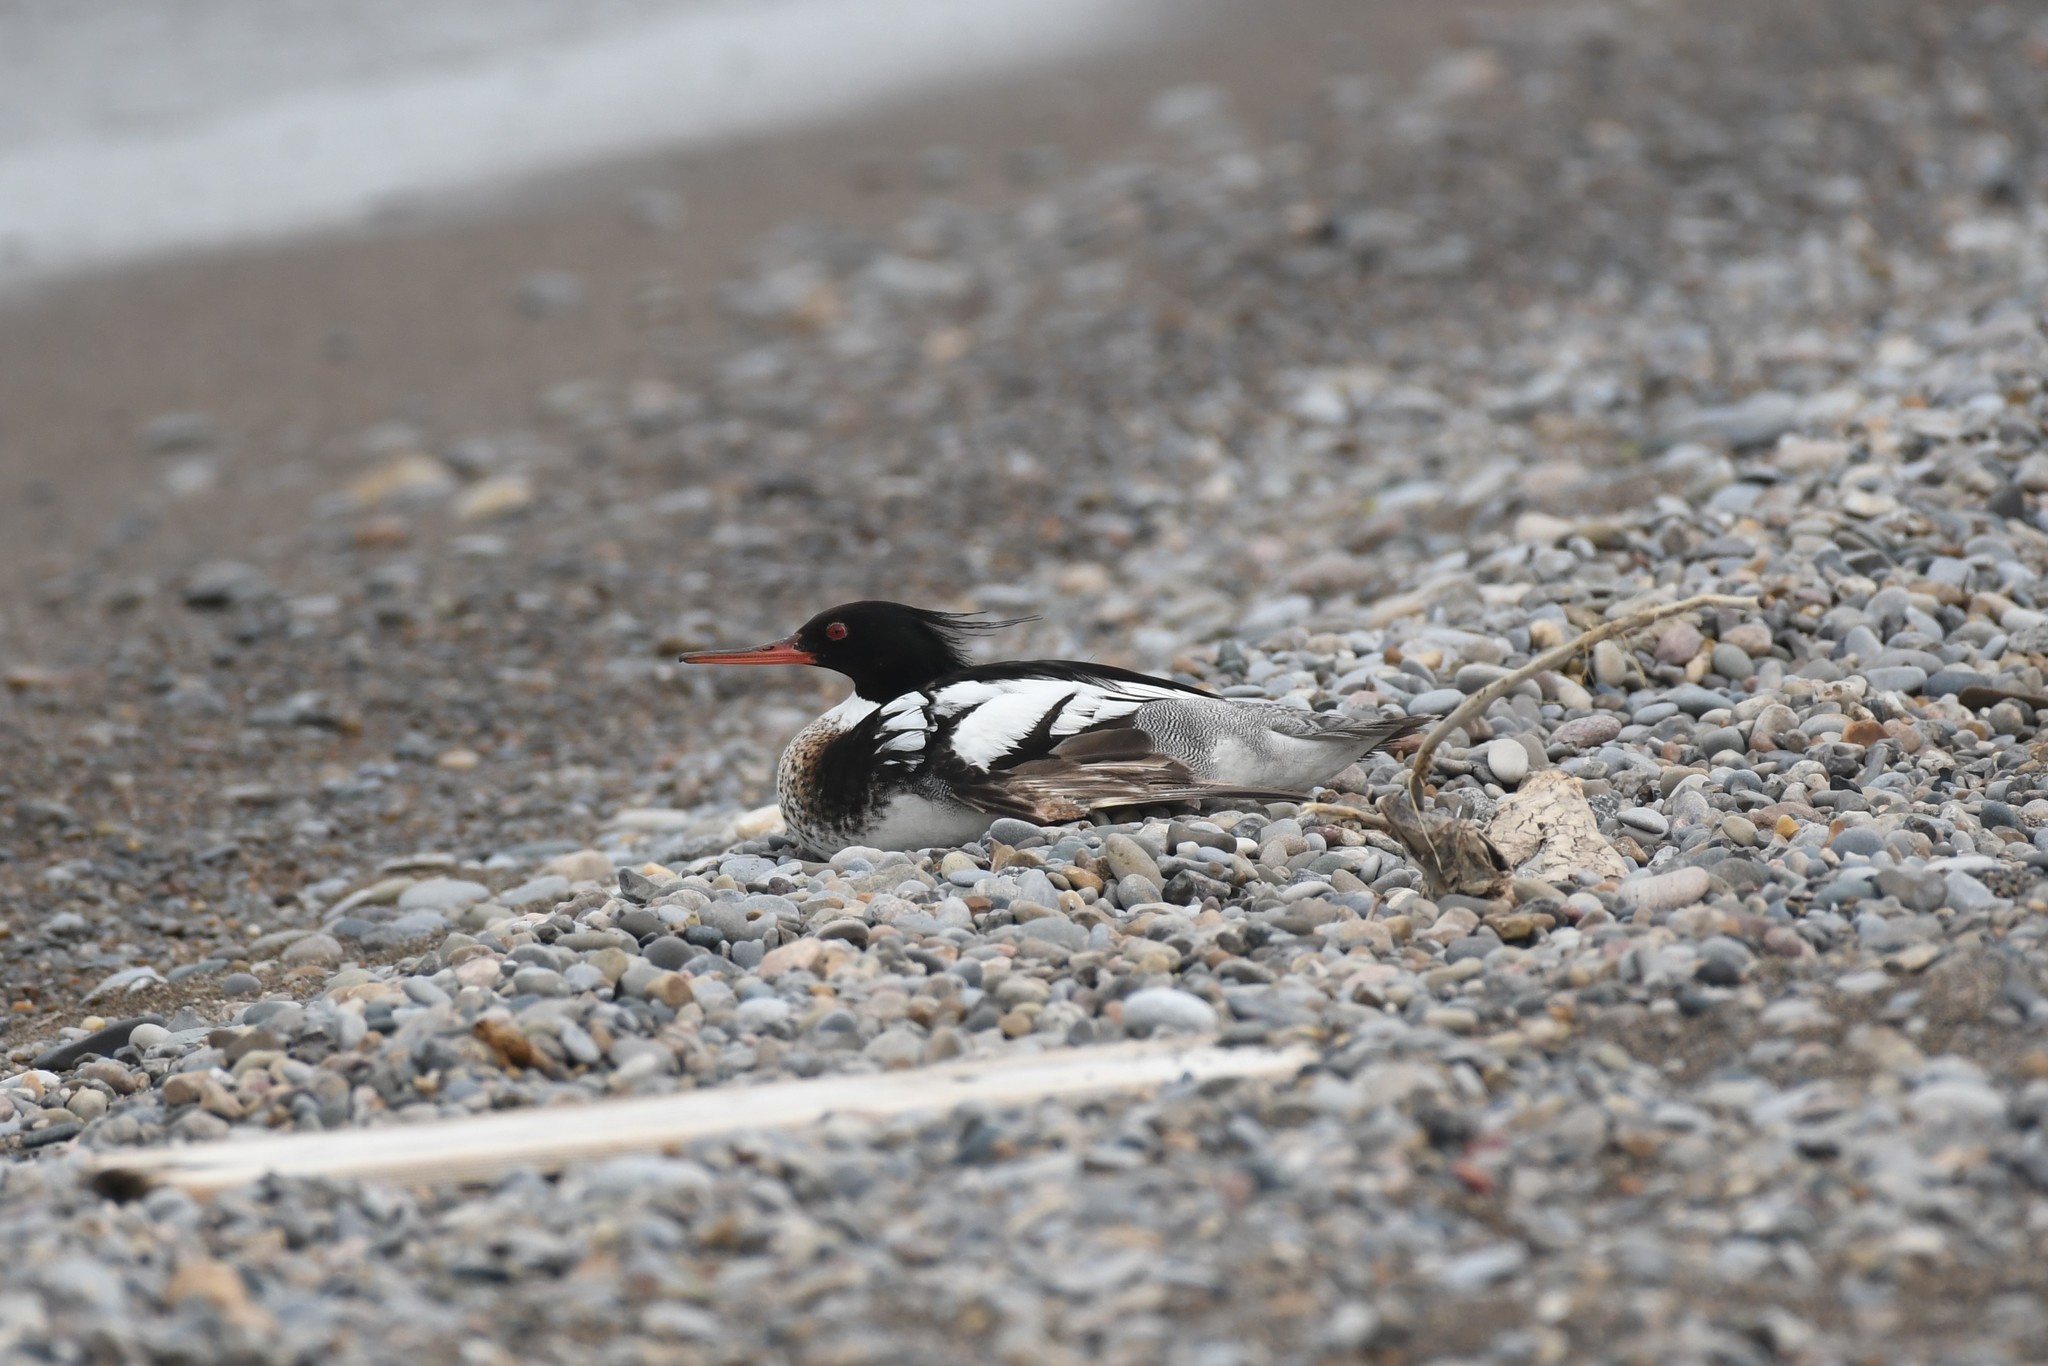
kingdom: Animalia
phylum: Chordata
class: Aves
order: Anseriformes
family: Anatidae
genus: Mergus
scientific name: Mergus serrator
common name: Red-breasted merganser
